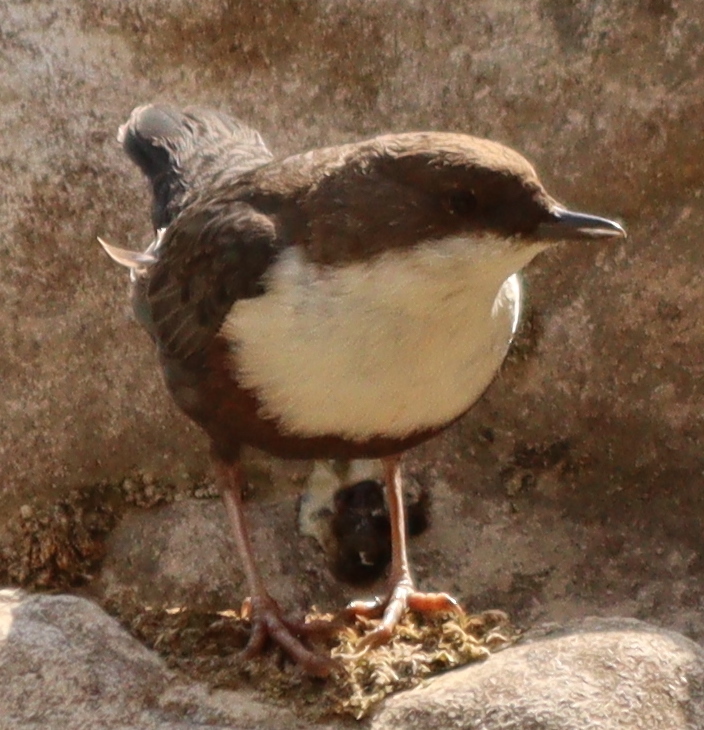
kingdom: Animalia
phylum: Chordata
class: Aves
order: Passeriformes
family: Cinclidae
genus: Cinclus
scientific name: Cinclus cinclus
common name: White-throated dipper
